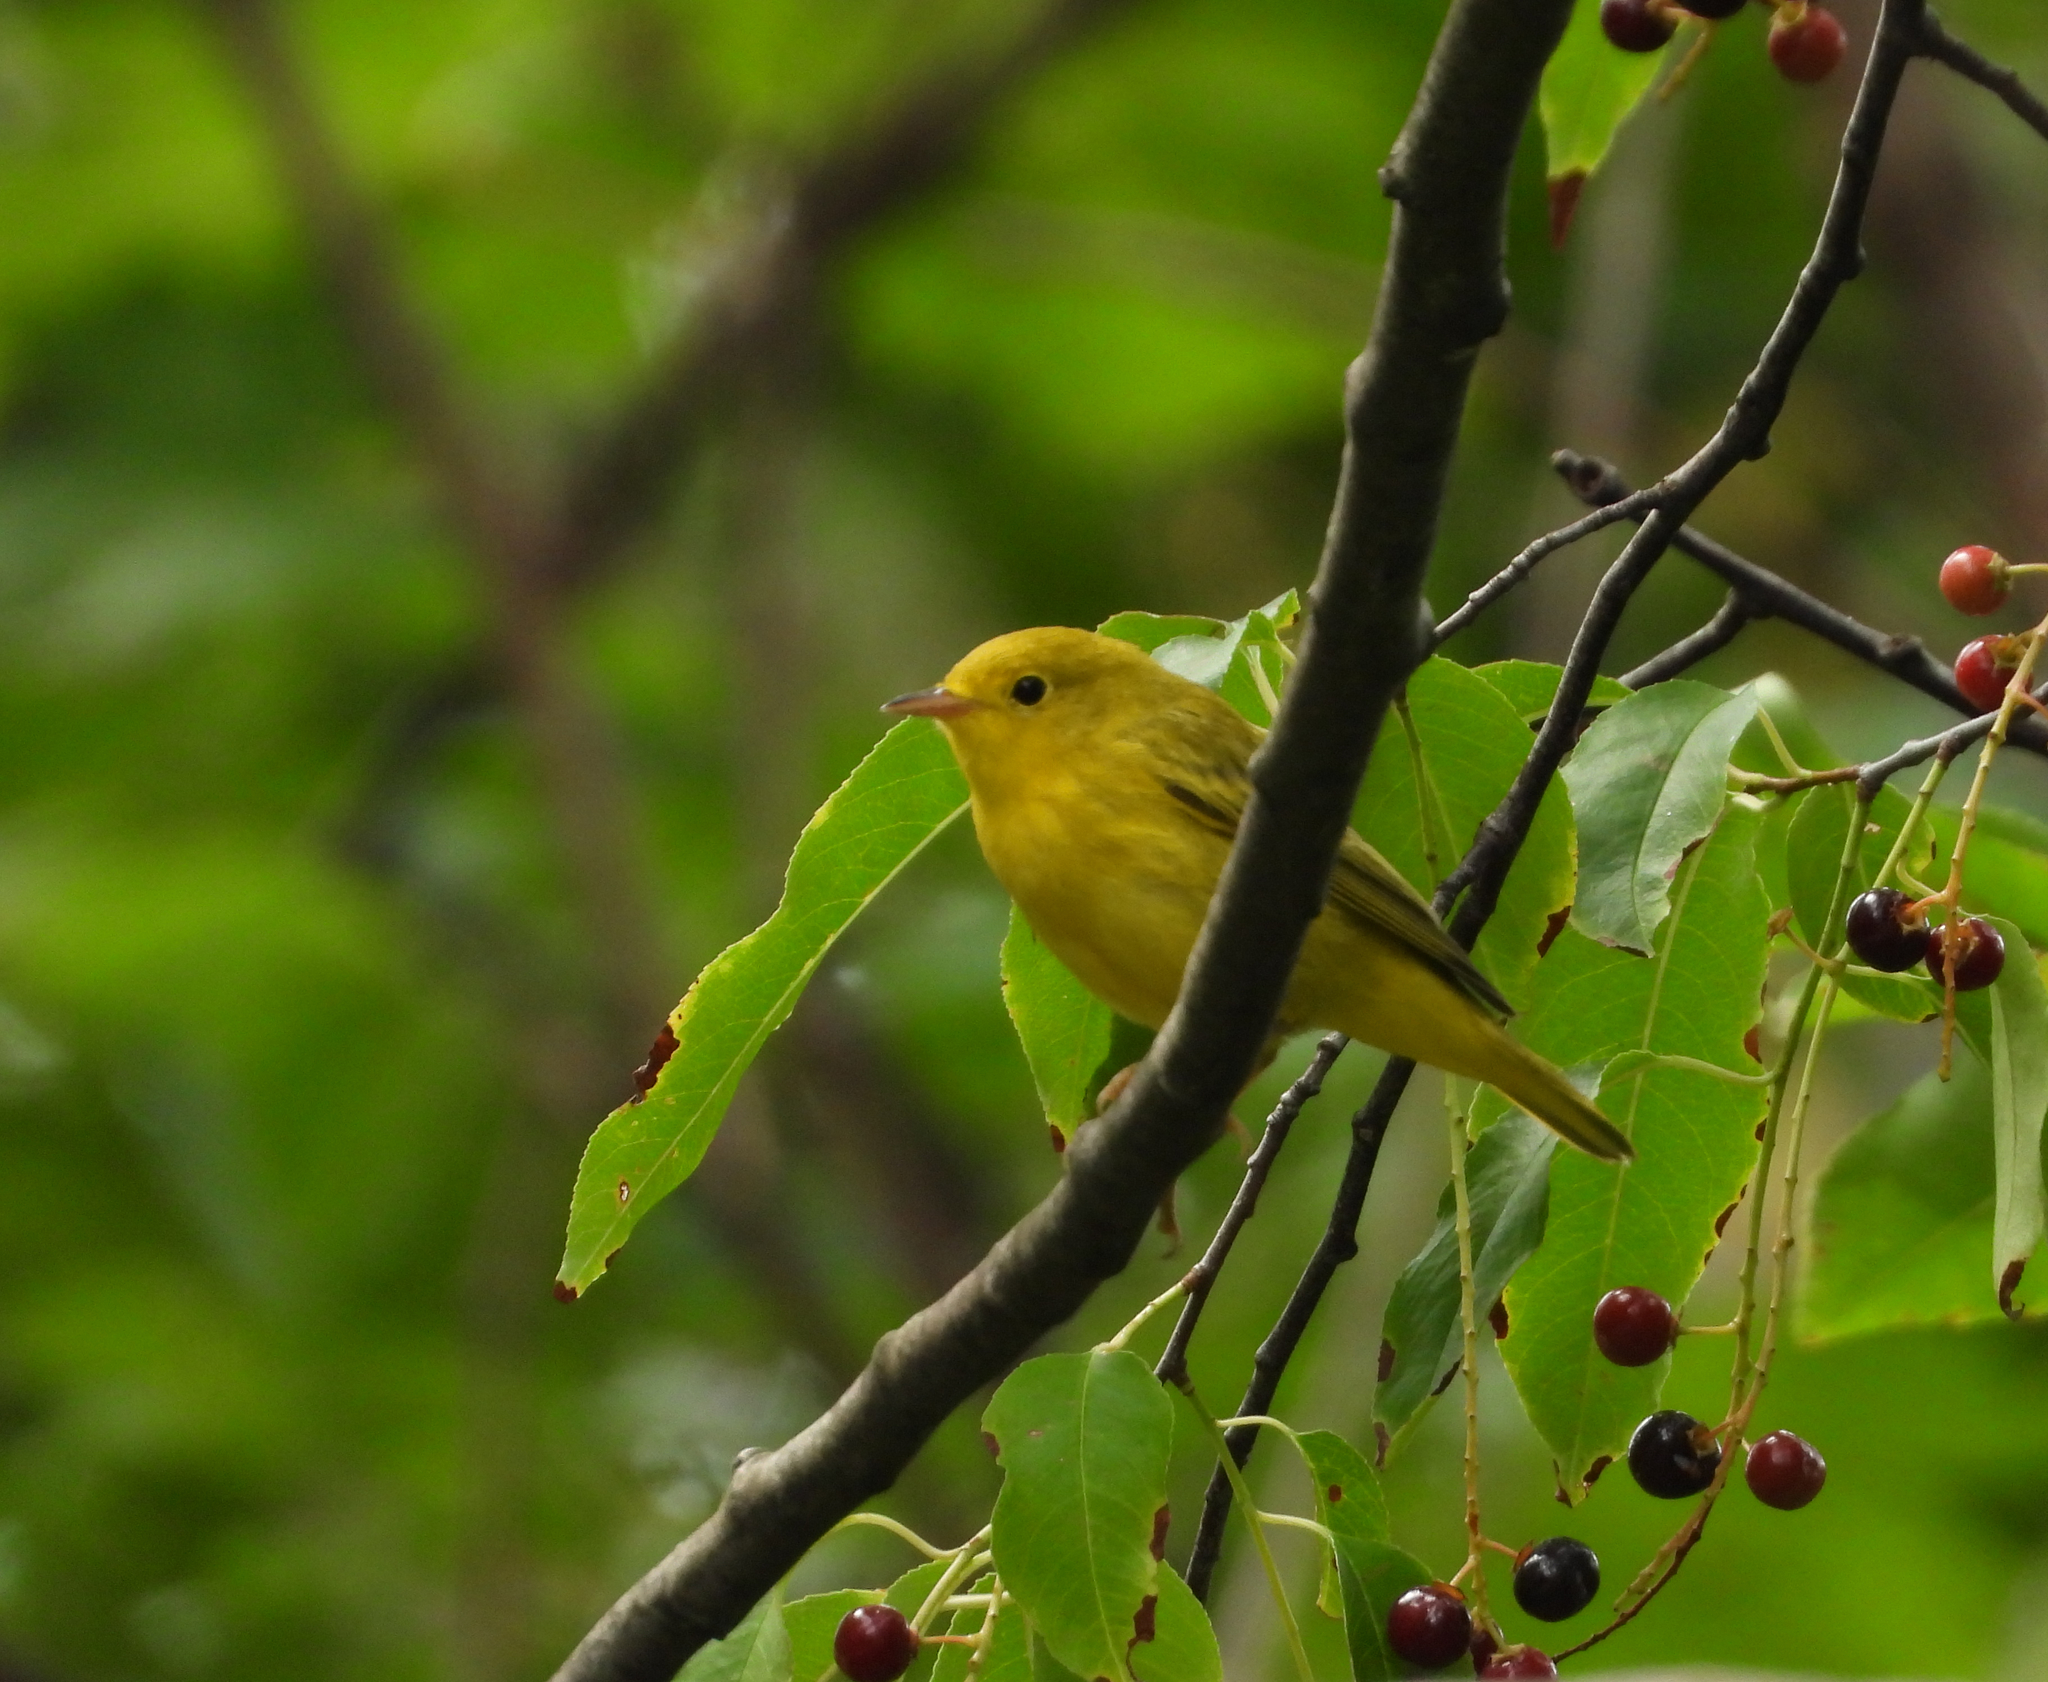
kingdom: Animalia
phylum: Chordata
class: Aves
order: Passeriformes
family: Parulidae
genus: Setophaga
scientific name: Setophaga petechia
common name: Yellow warbler
